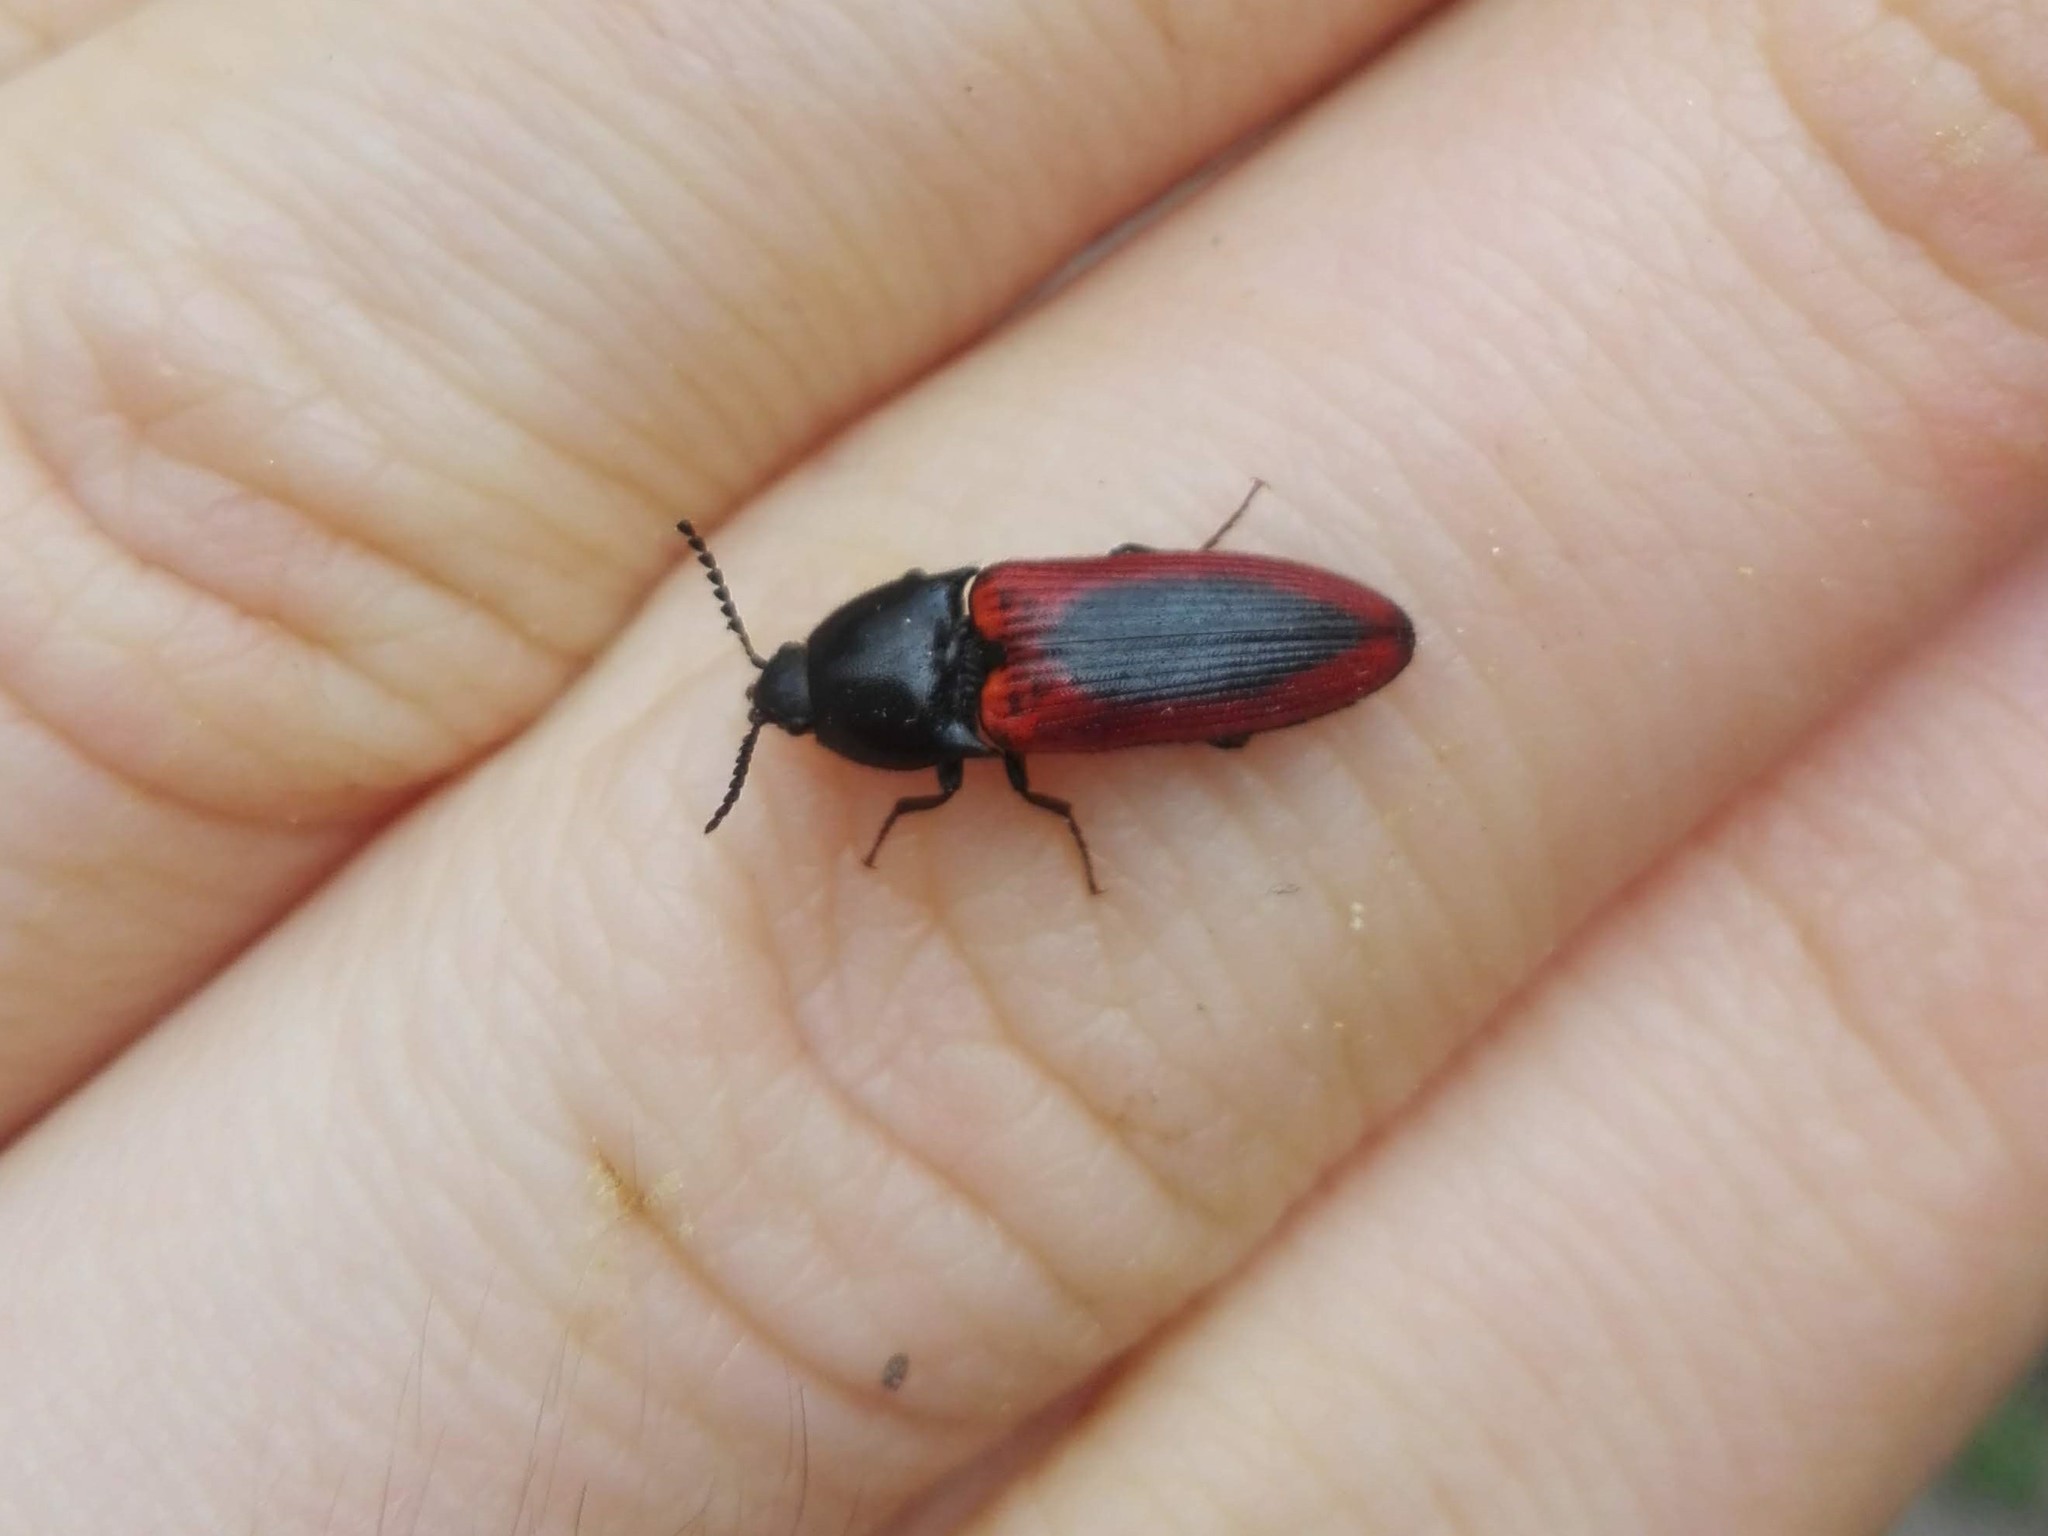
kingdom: Animalia
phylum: Arthropoda
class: Insecta
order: Coleoptera
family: Elateridae
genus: Ampedus
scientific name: Ampedus sanguinolentus
